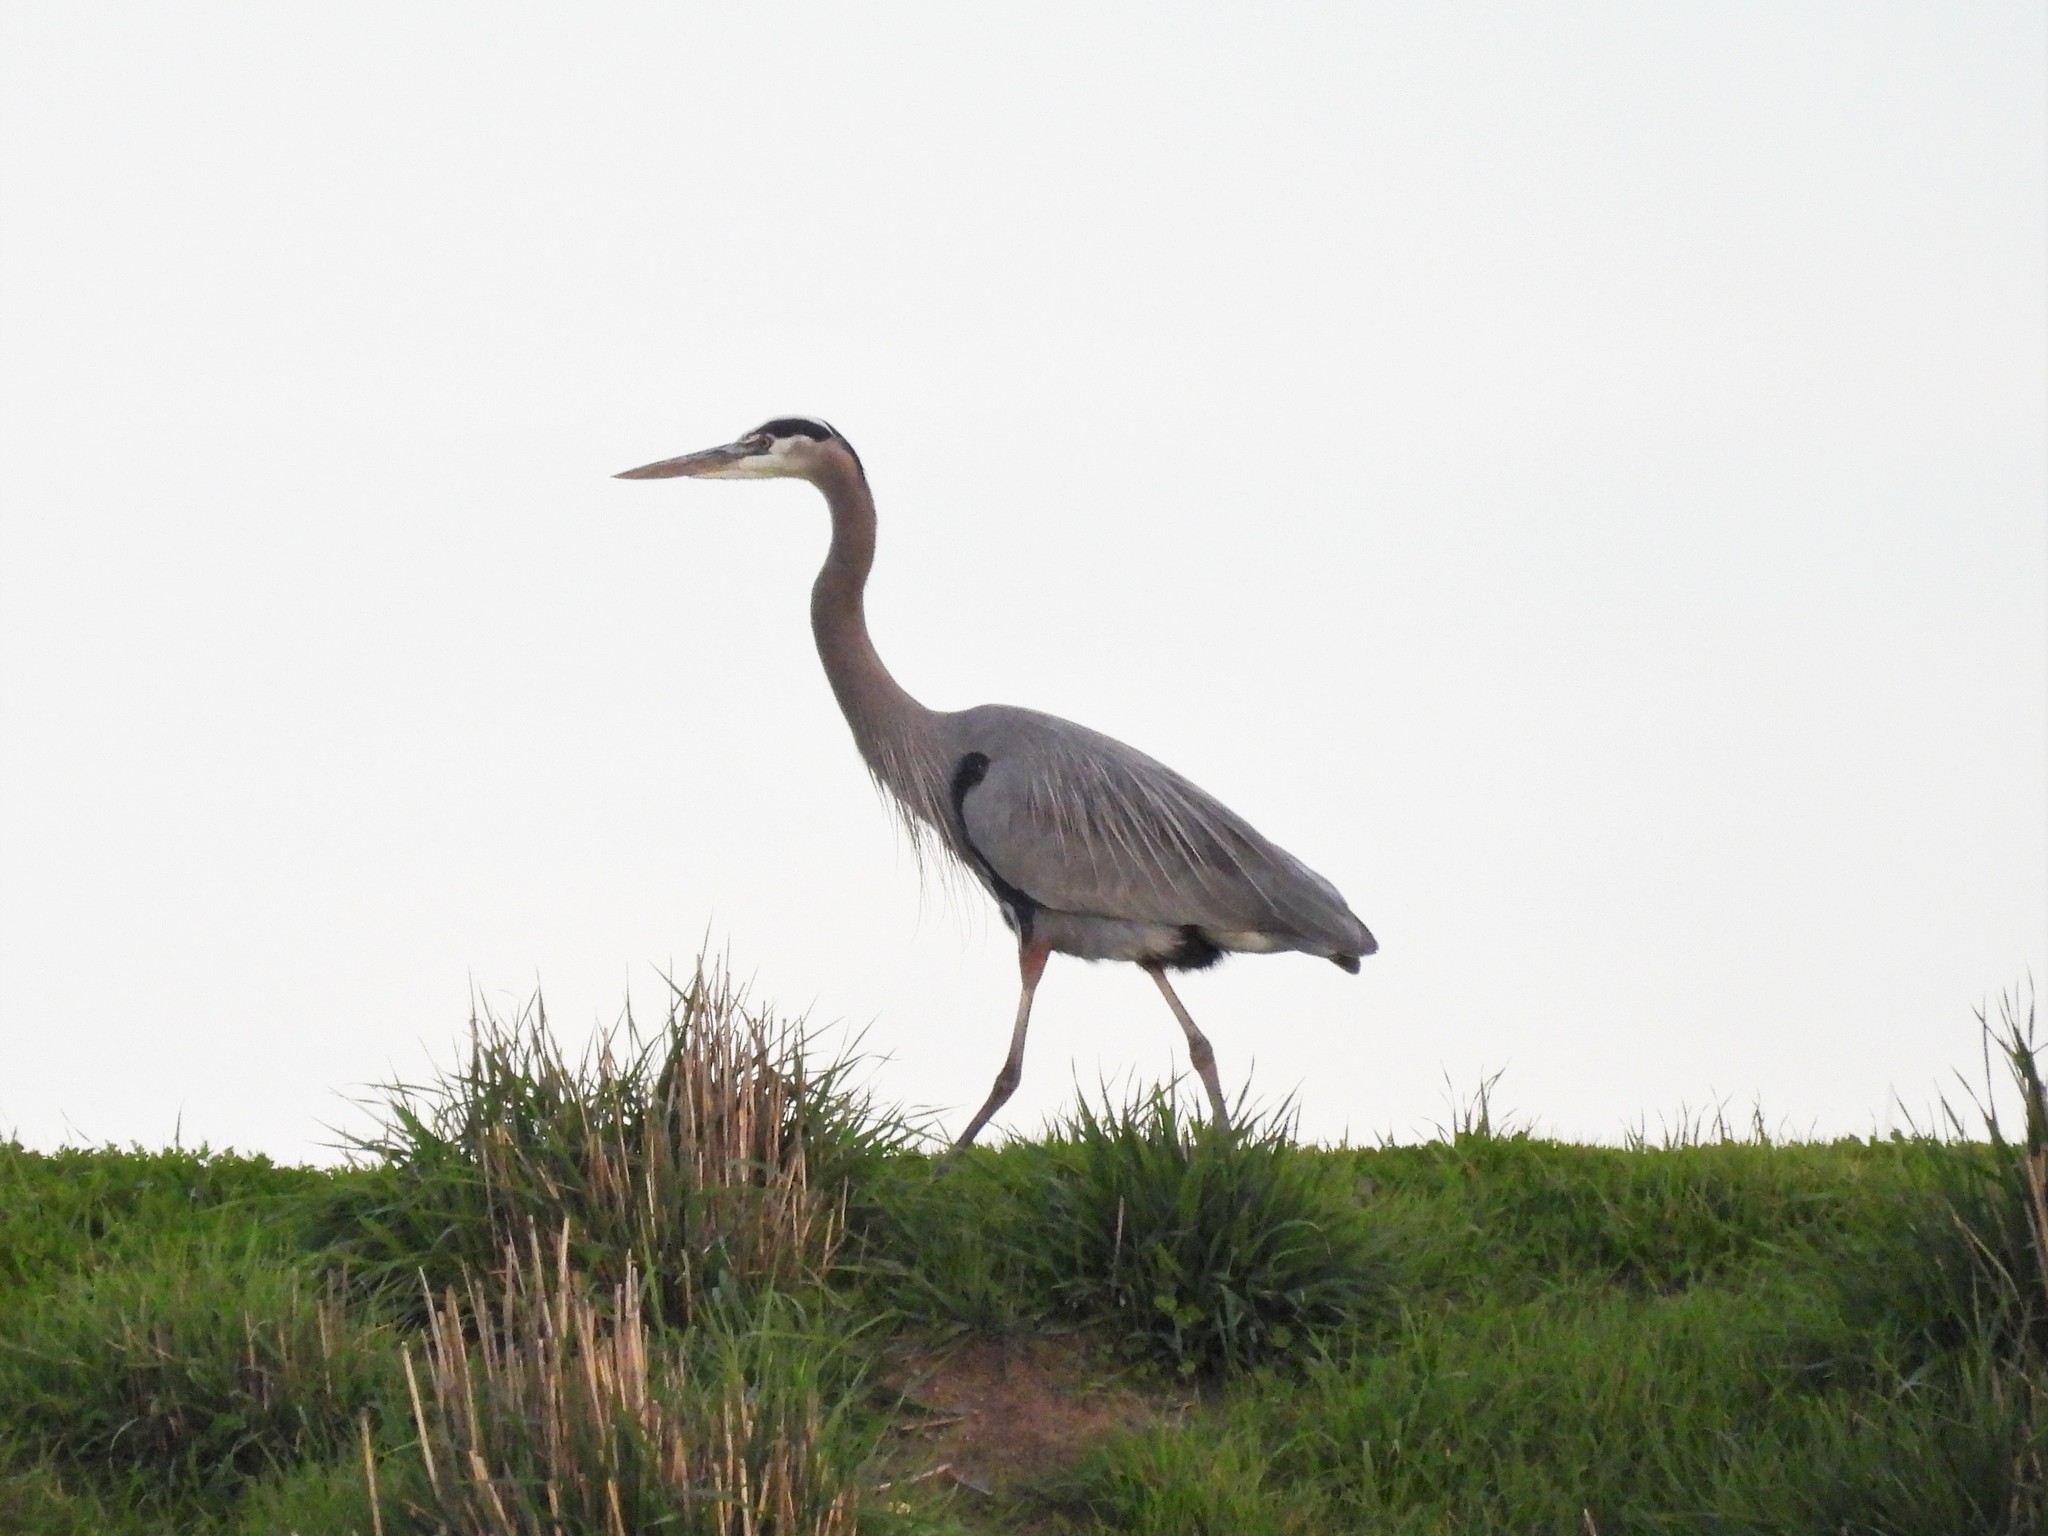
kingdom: Animalia
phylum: Chordata
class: Aves
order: Pelecaniformes
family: Ardeidae
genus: Ardea
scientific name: Ardea herodias
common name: Great blue heron
